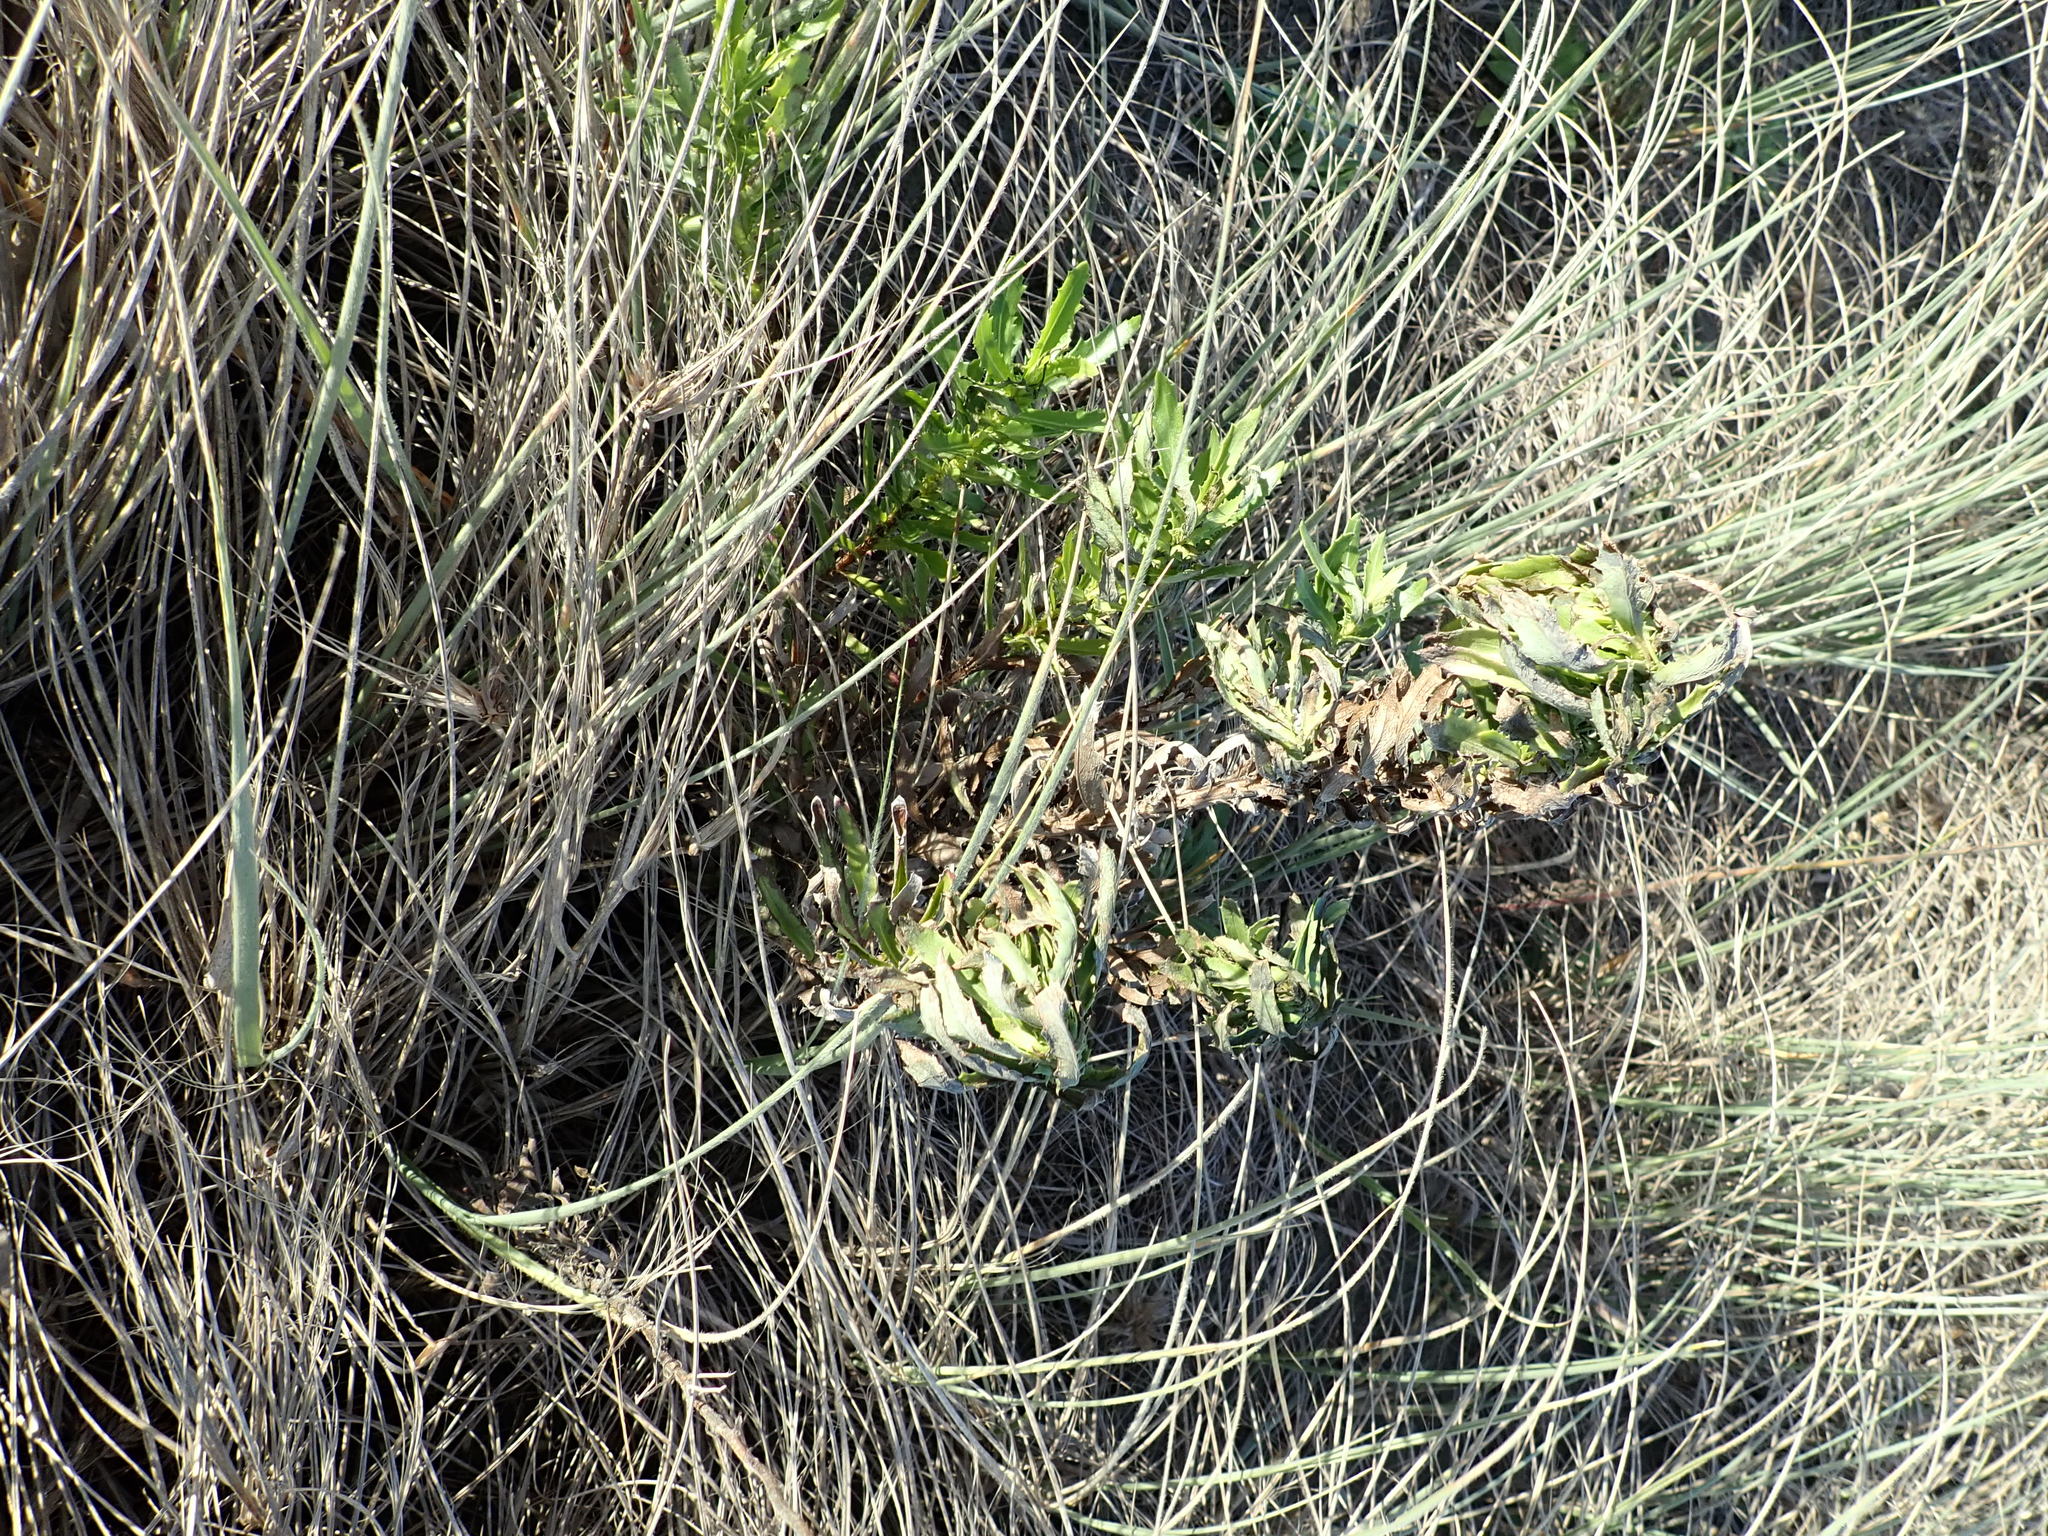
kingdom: Plantae
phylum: Tracheophyta
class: Magnoliopsida
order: Asterales
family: Asteraceae
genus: Senecio
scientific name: Senecio glastifolius
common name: Woad-leaved ragwort
